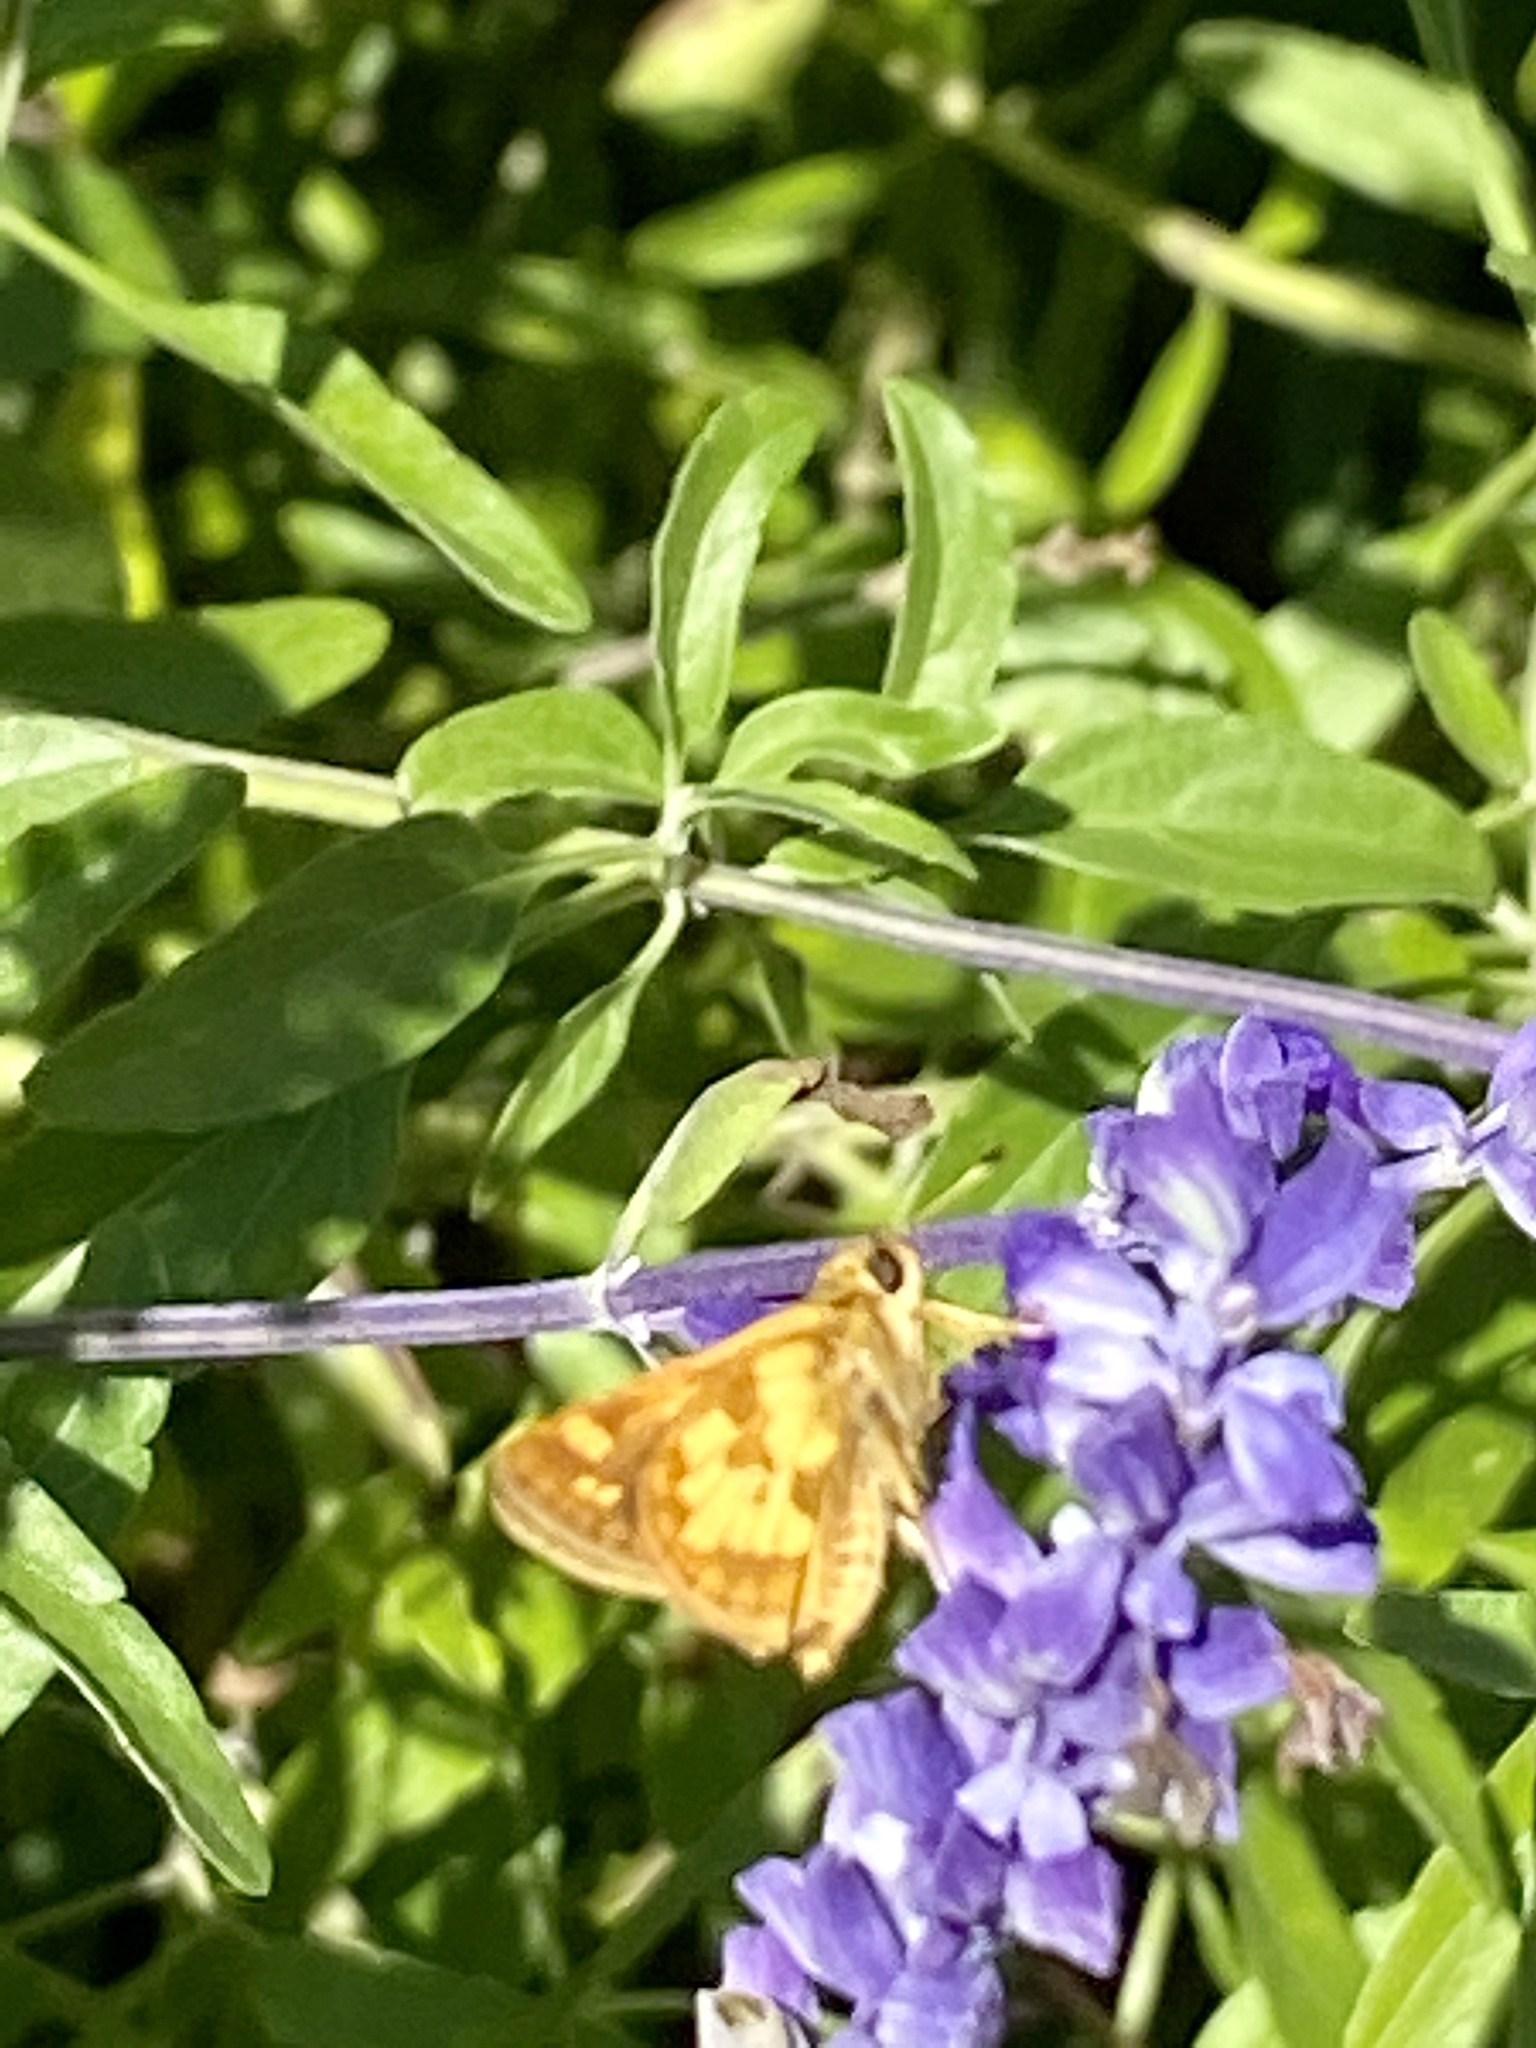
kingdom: Animalia
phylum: Arthropoda
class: Insecta
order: Lepidoptera
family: Hesperiidae
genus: Polites
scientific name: Polites coras
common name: Peck's skipper
